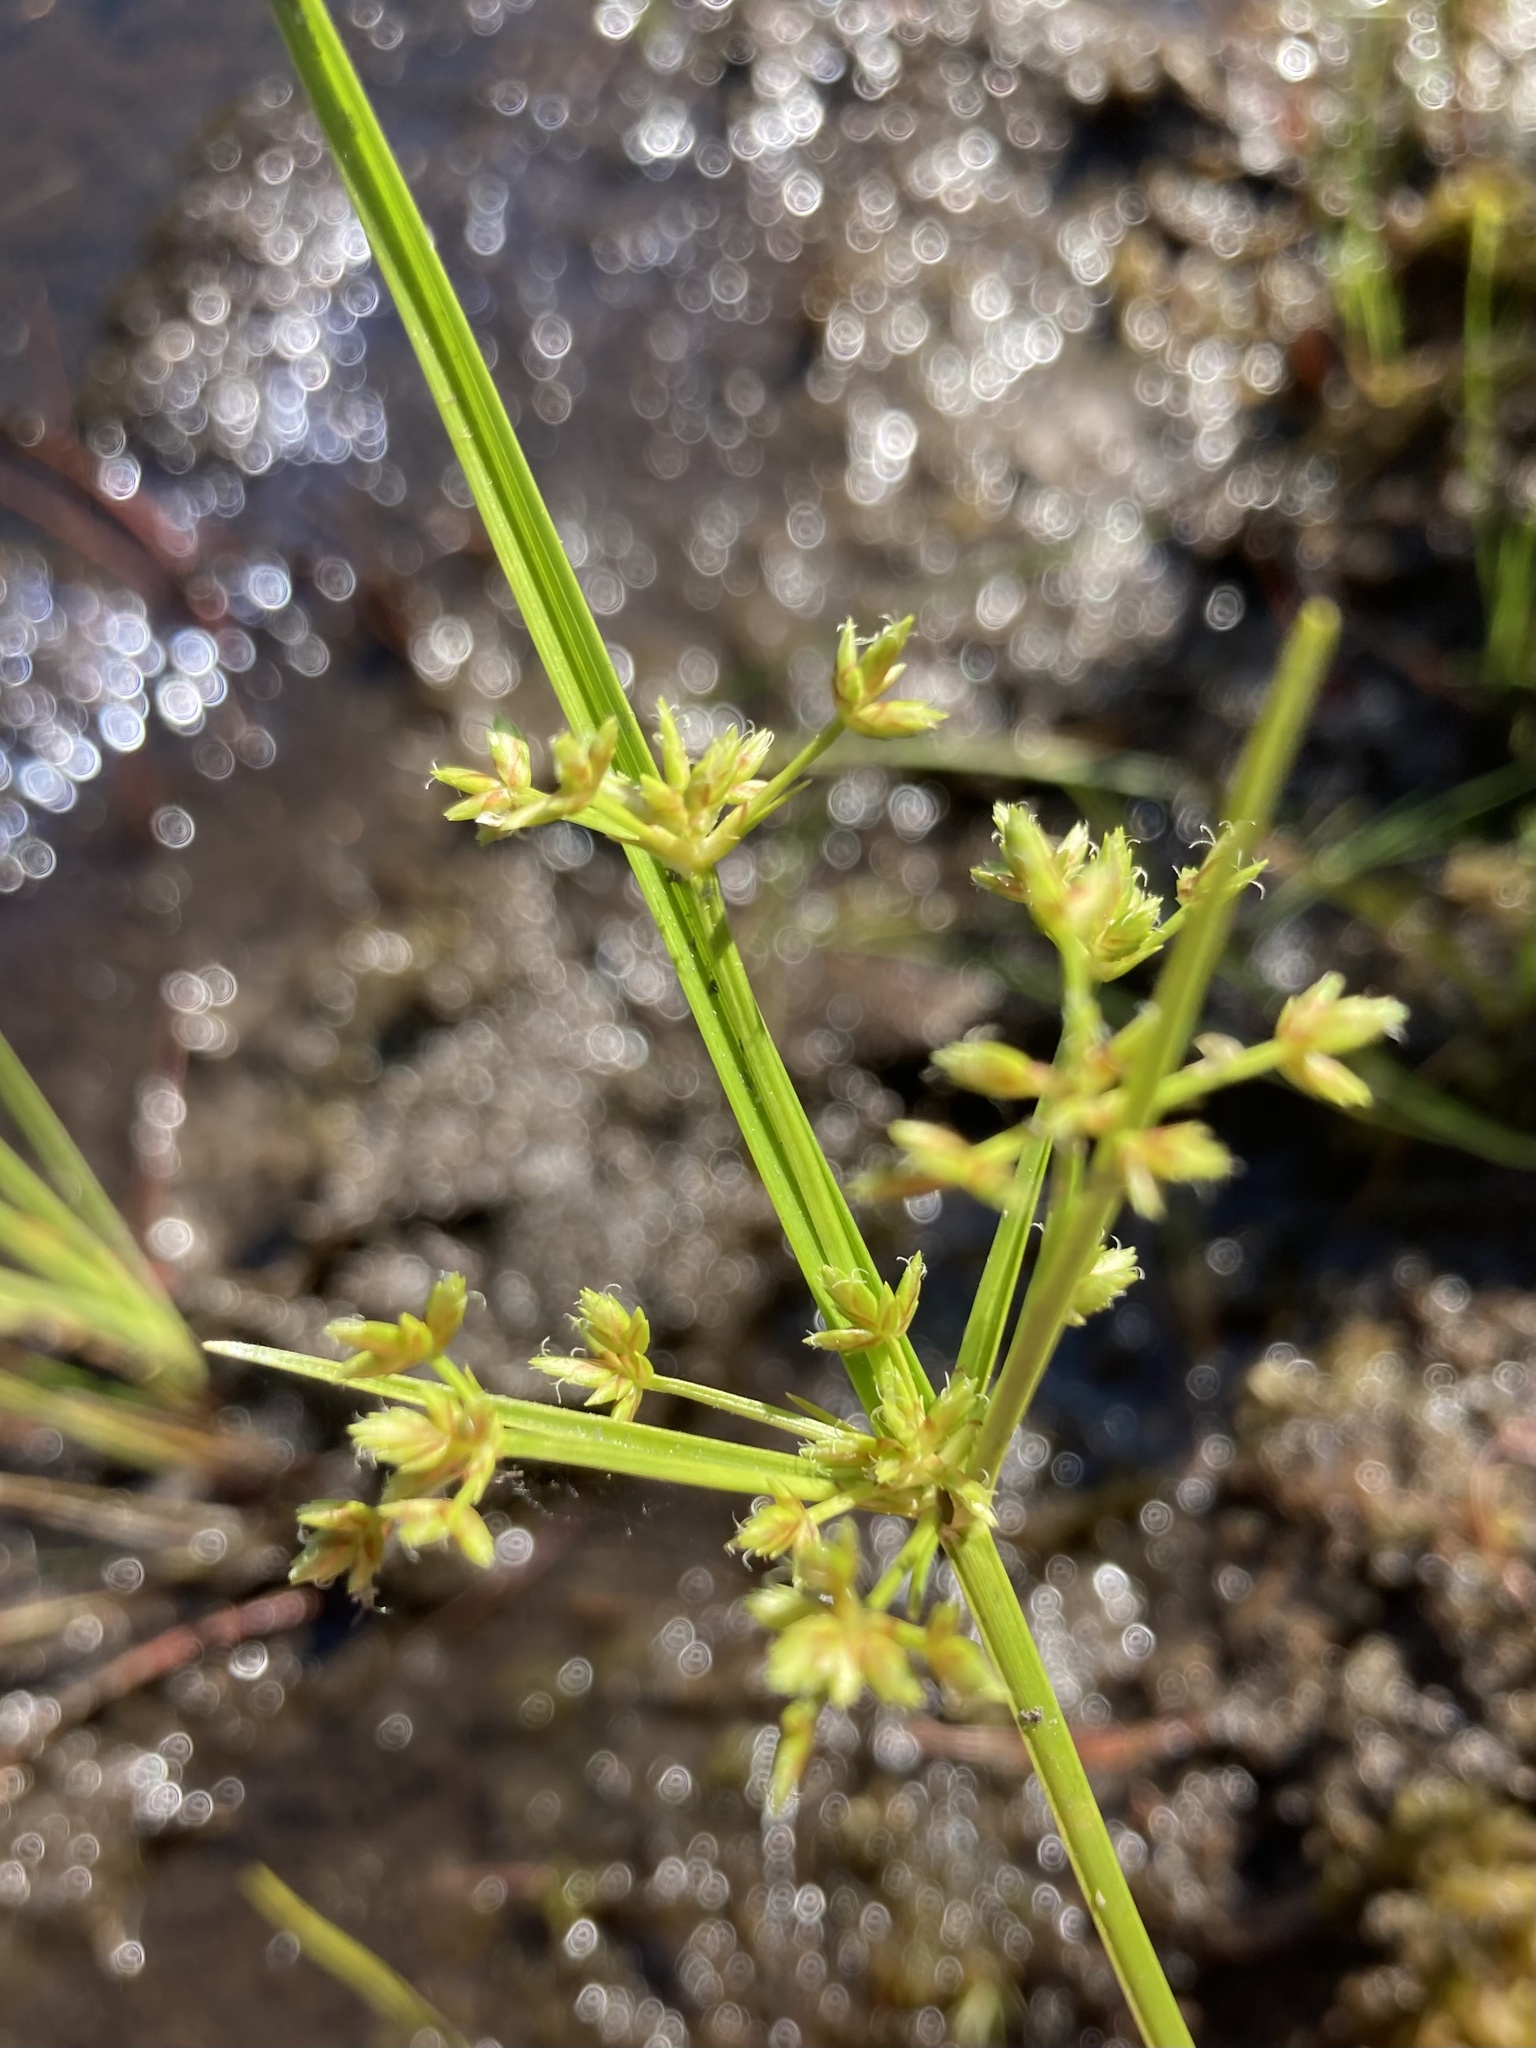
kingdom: Plantae
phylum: Tracheophyta
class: Liliopsida
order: Poales
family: Cyperaceae
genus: Cyperus
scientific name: Cyperus dentatus
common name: Dentate umbrella sedge
